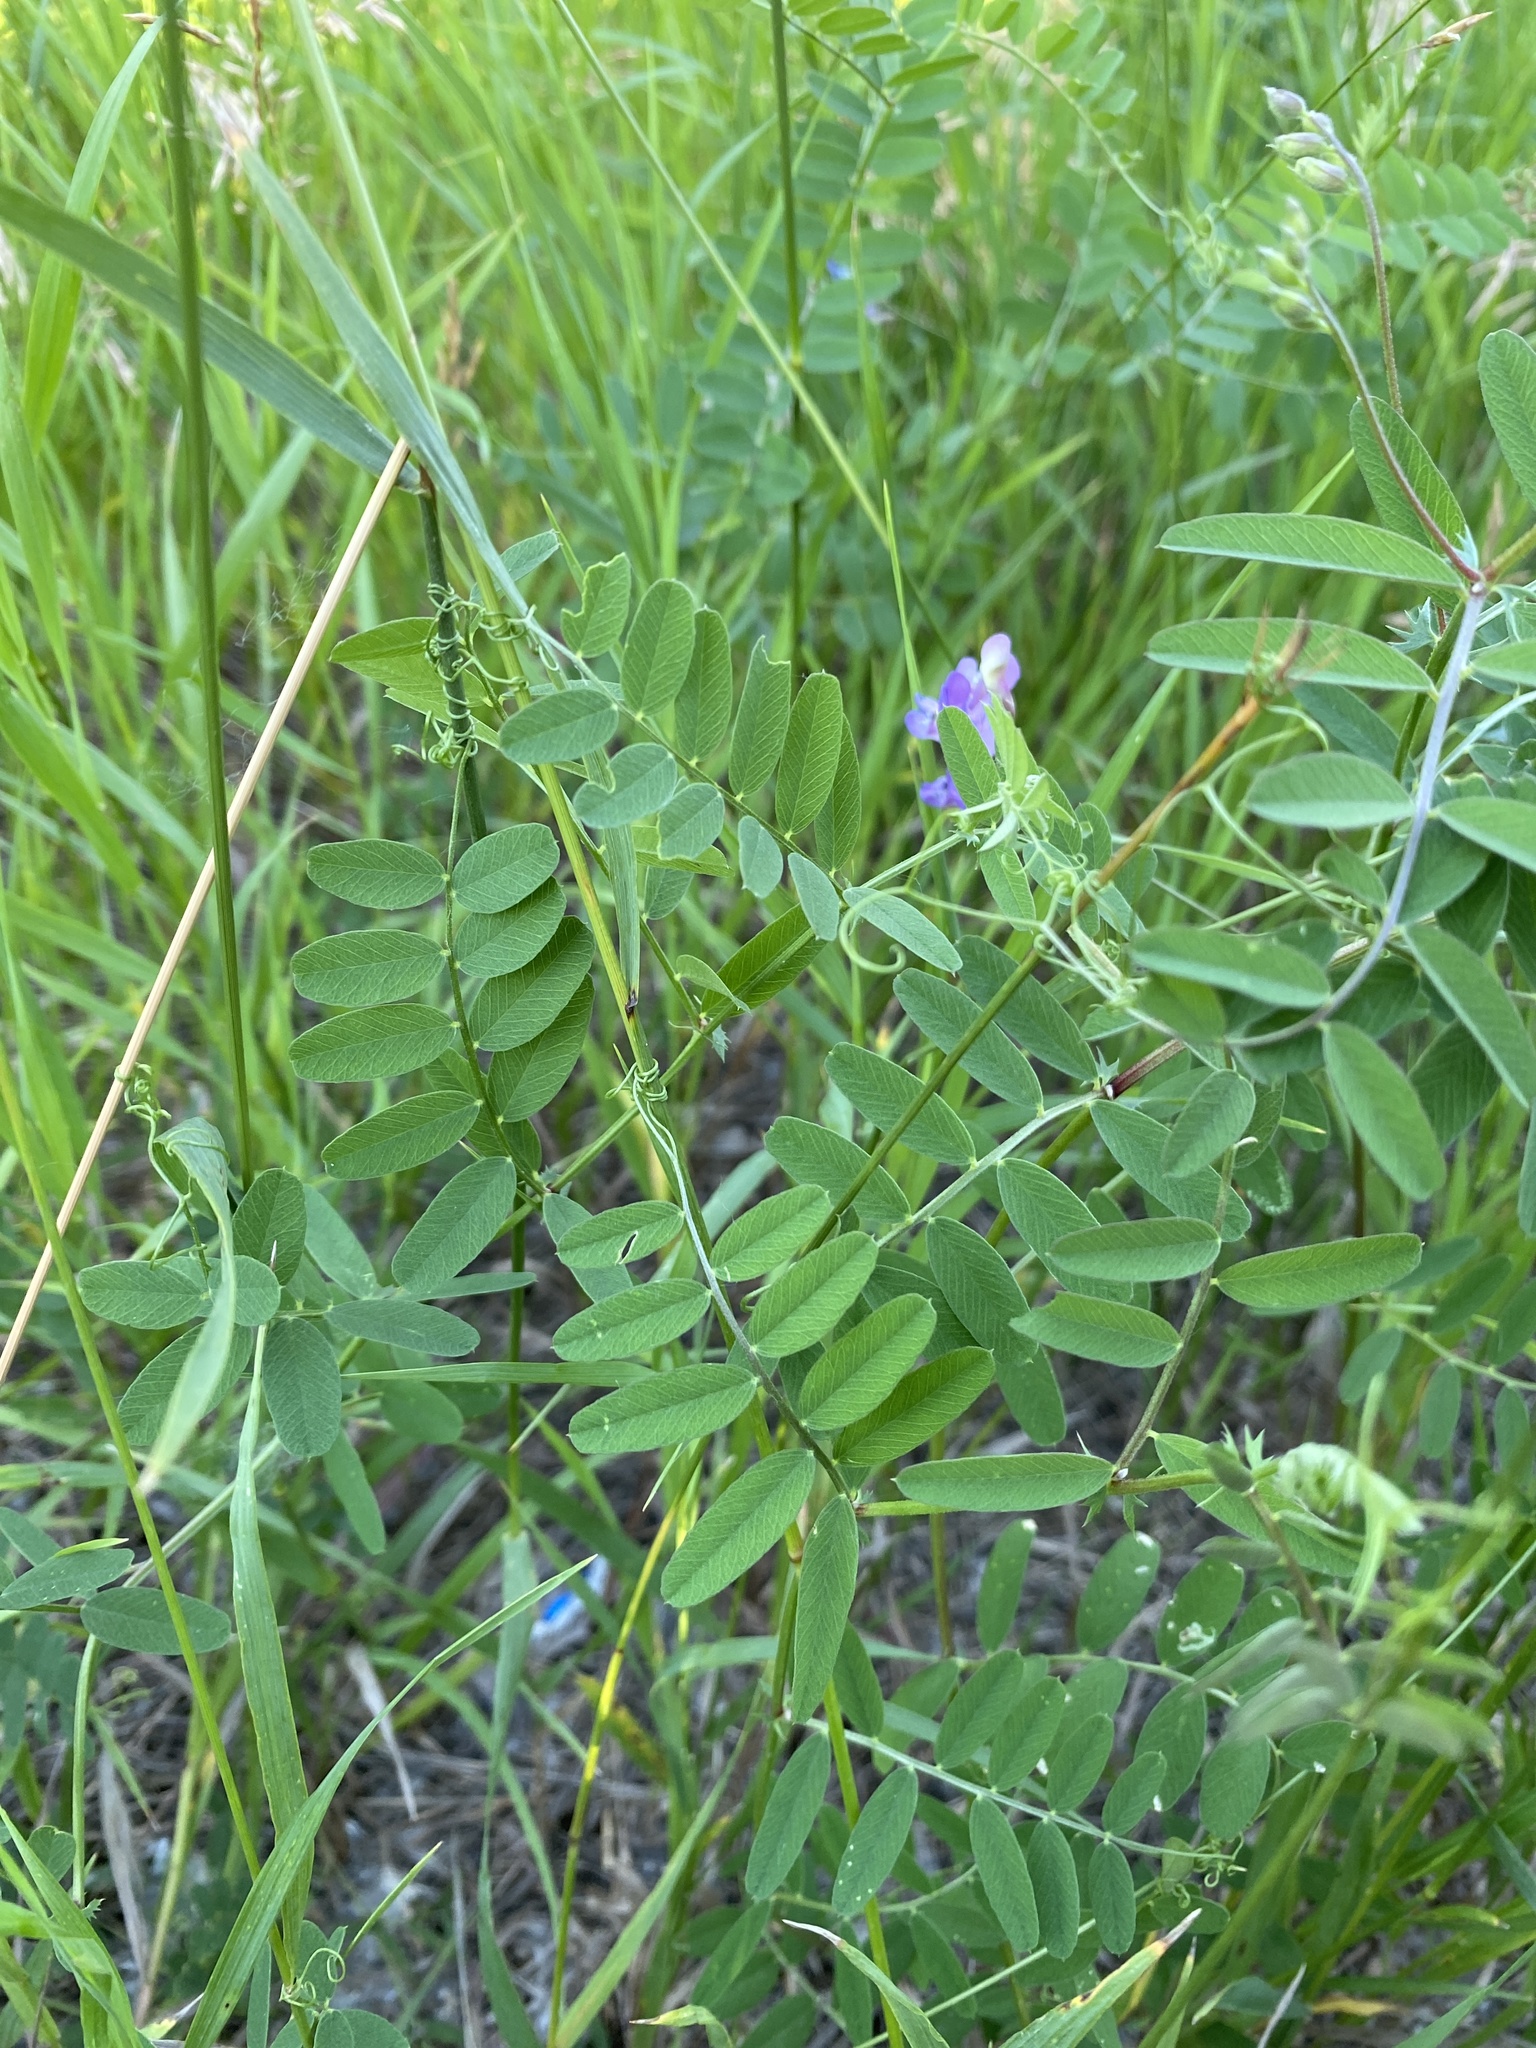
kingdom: Plantae
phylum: Tracheophyta
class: Magnoliopsida
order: Fabales
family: Fabaceae
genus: Vicia
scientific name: Vicia americana
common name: American vetch
